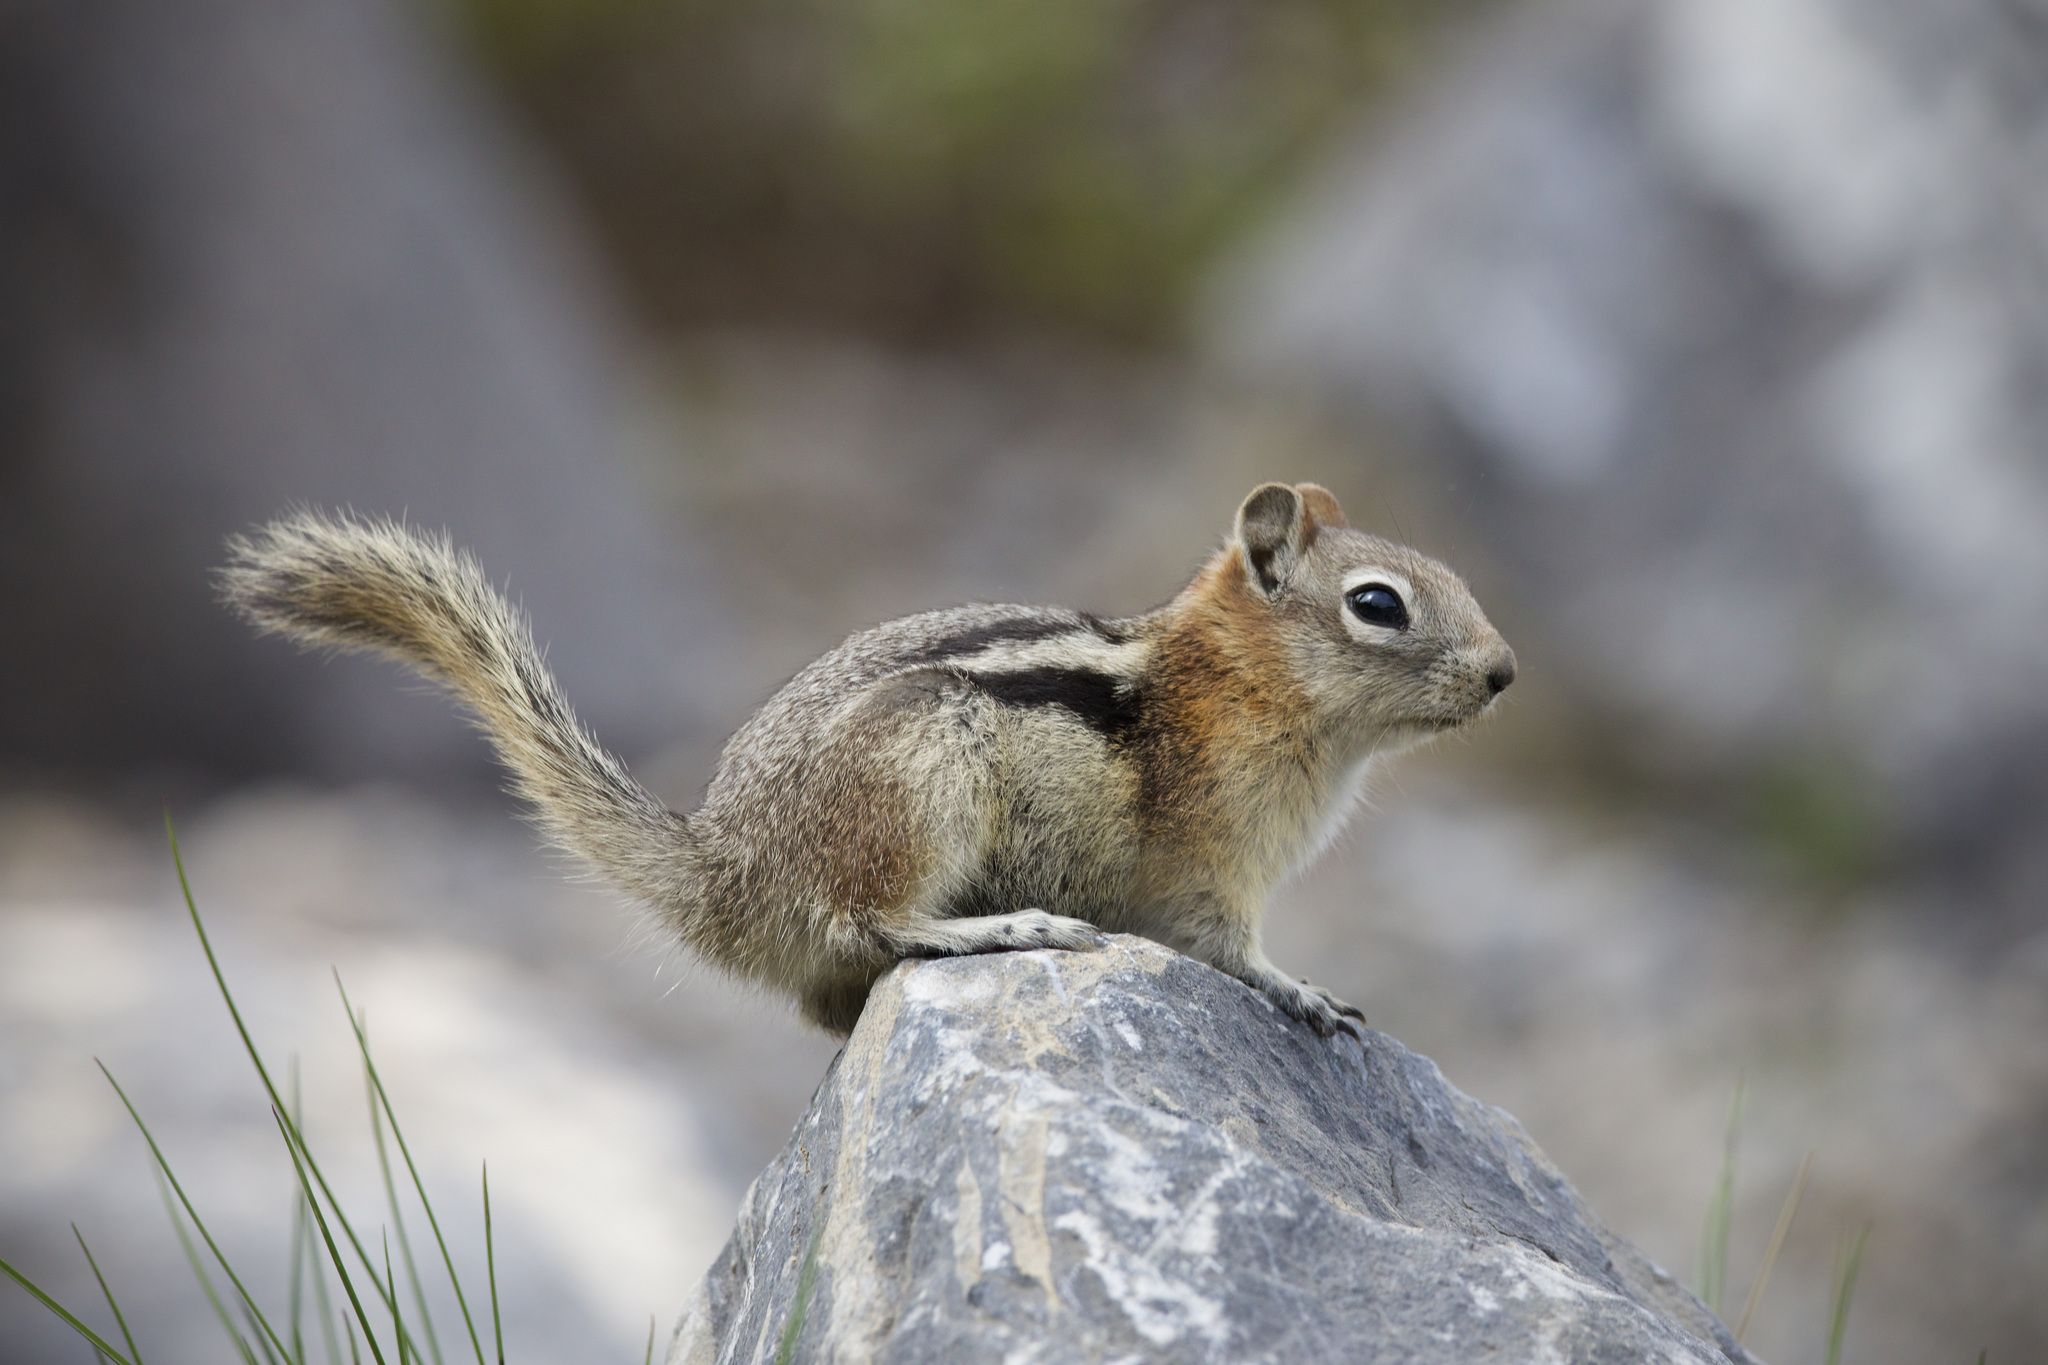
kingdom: Animalia
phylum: Chordata
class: Mammalia
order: Rodentia
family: Sciuridae
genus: Callospermophilus
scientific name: Callospermophilus lateralis
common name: Golden-mantled ground squirrel
